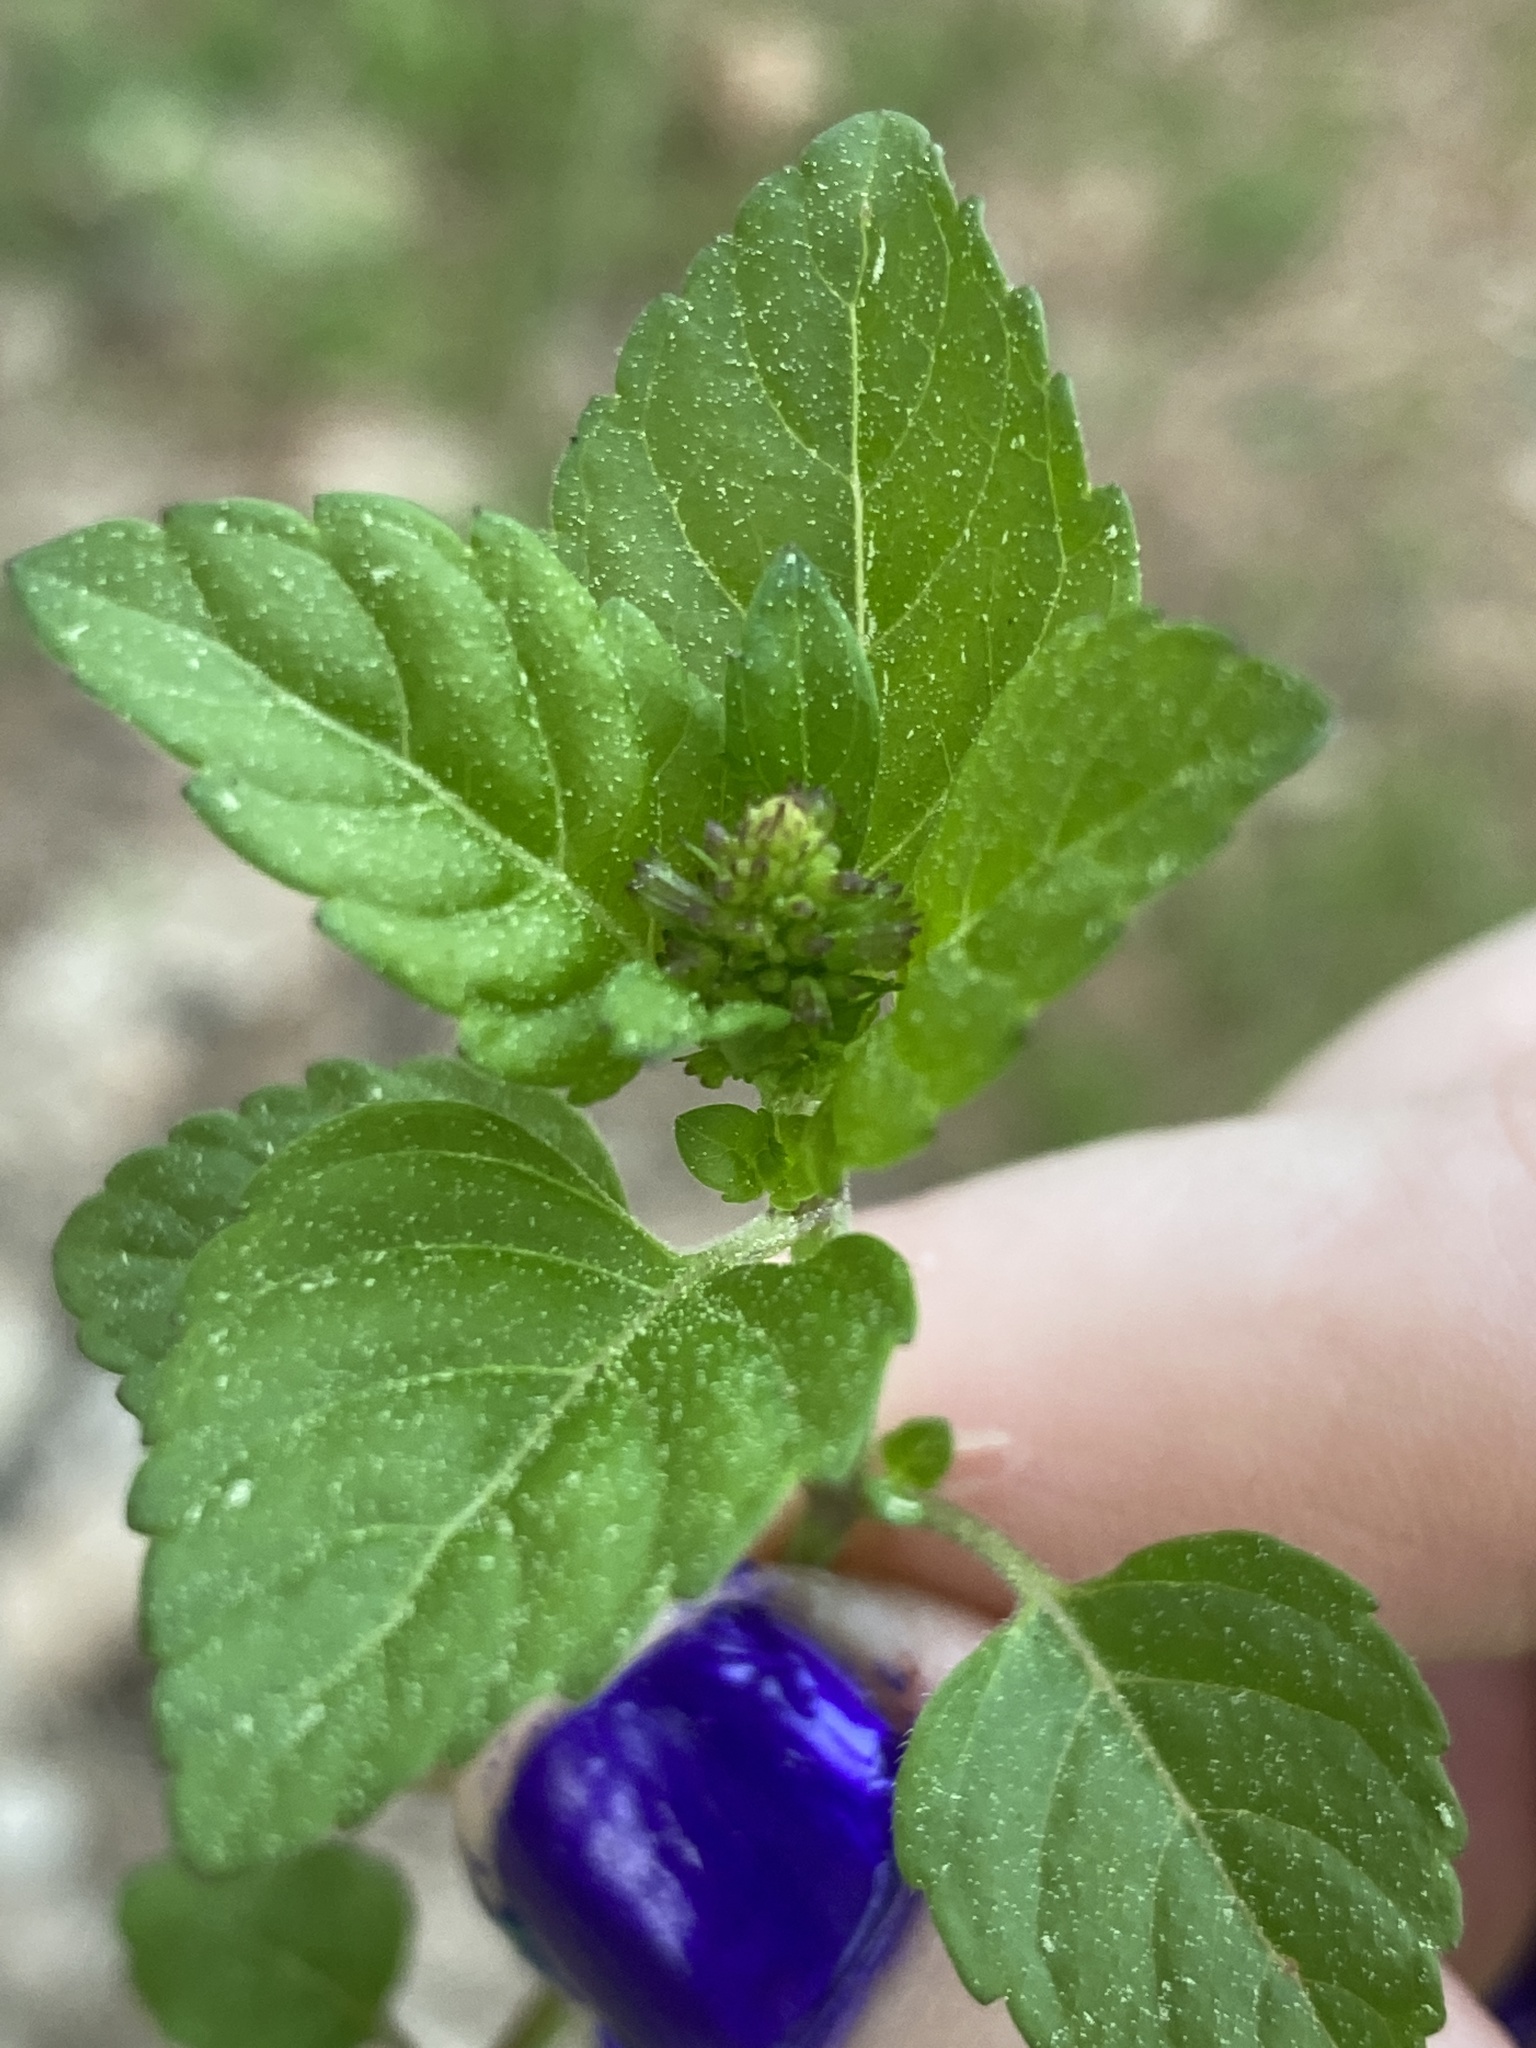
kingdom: Plantae
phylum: Tracheophyta
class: Magnoliopsida
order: Lamiales
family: Lamiaceae
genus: Clinopodium
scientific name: Clinopodium gracile
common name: Slender wild basil
